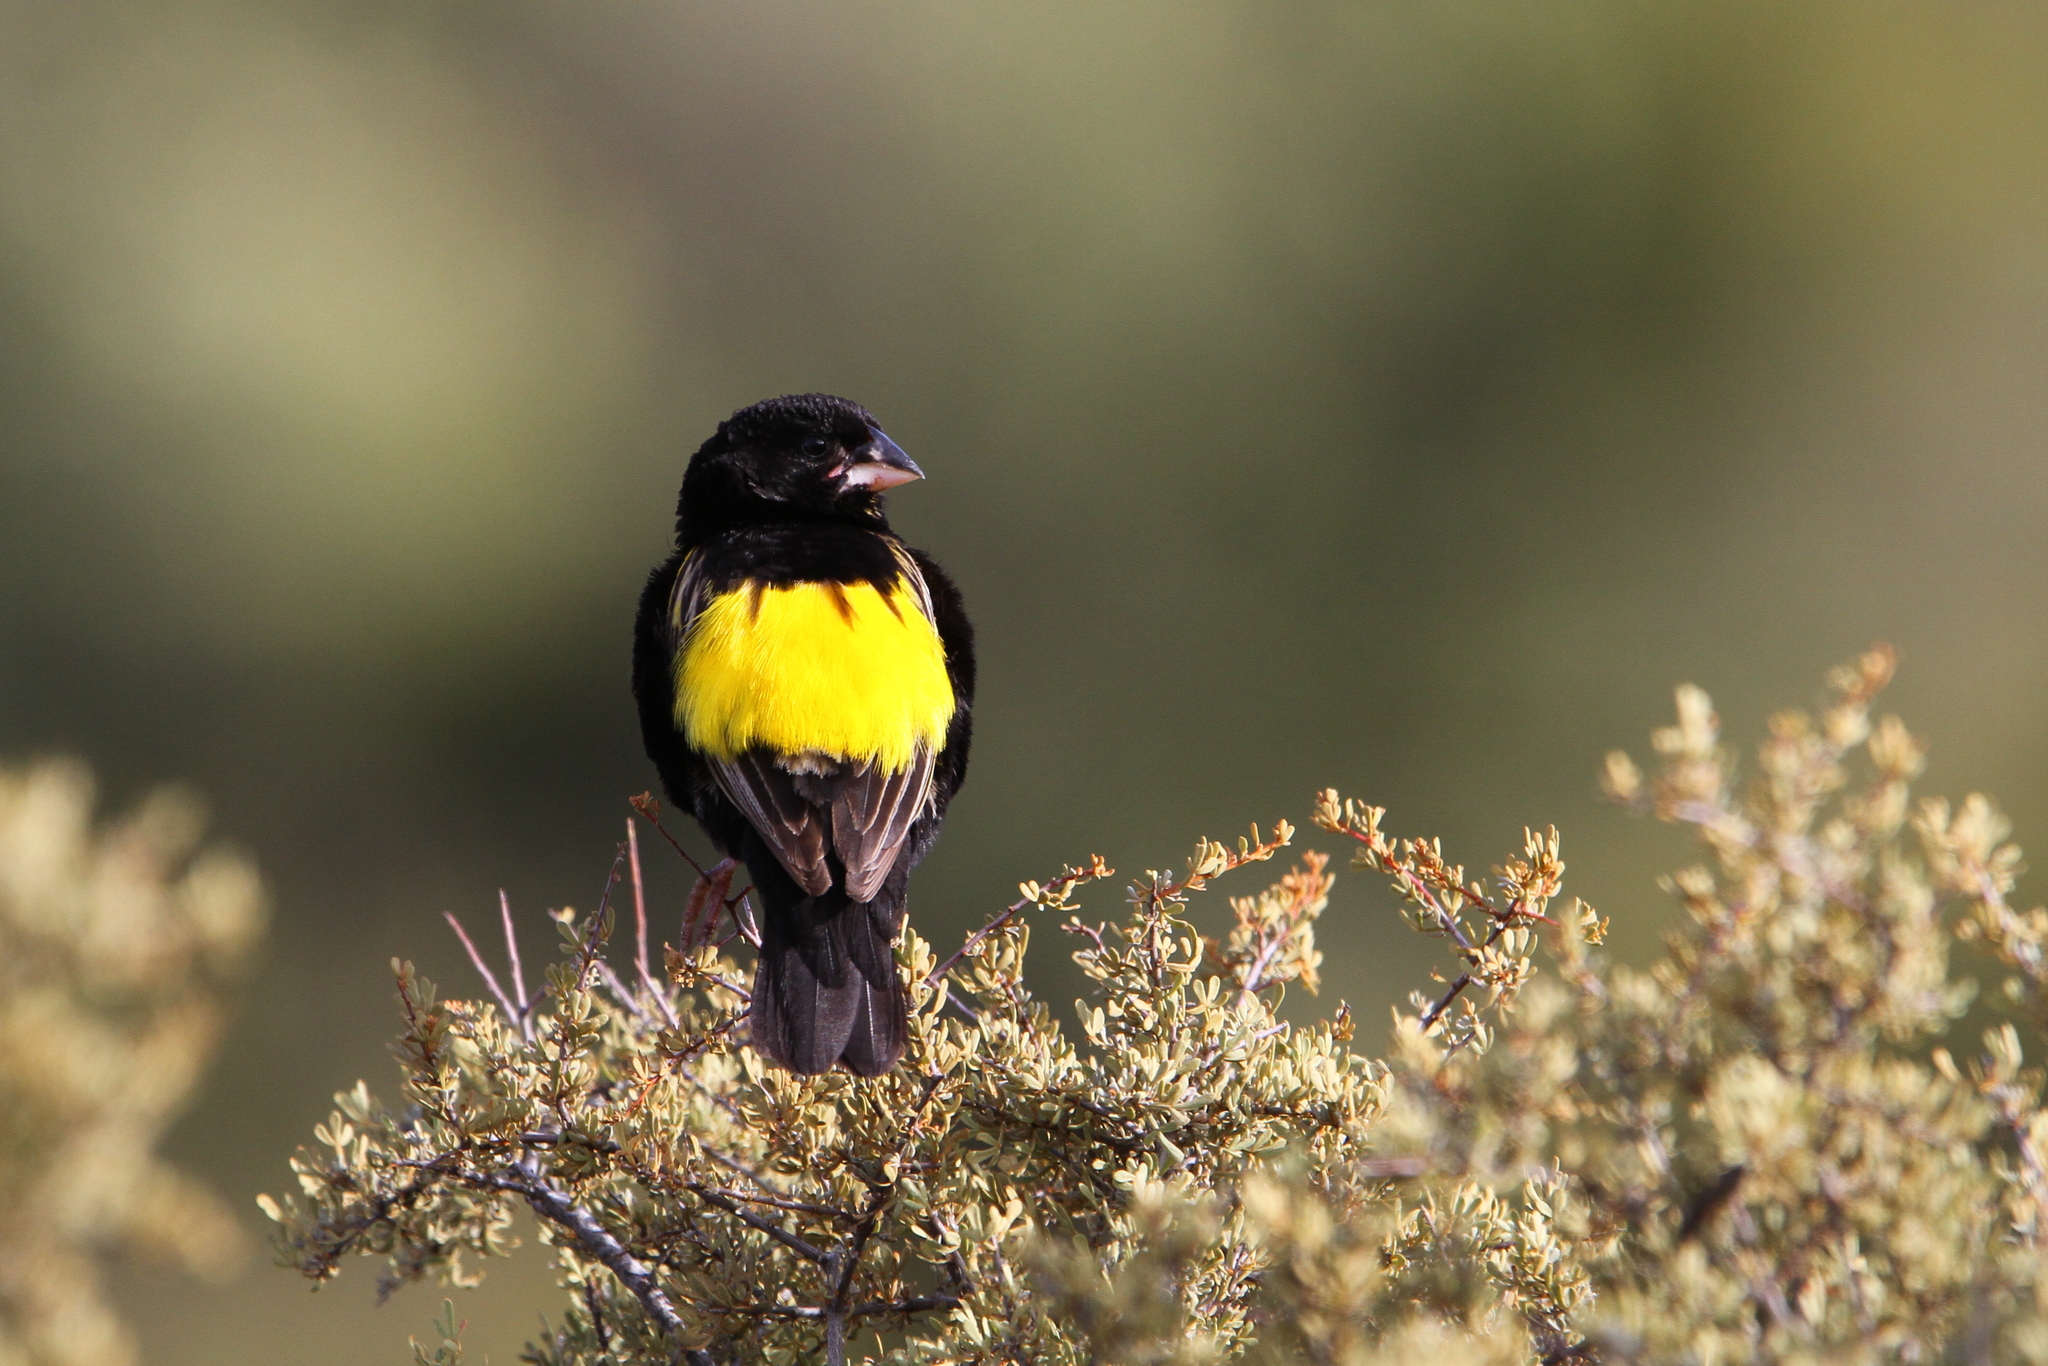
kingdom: Animalia
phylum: Chordata
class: Aves
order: Passeriformes
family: Ploceidae
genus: Euplectes
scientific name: Euplectes capensis
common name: Yellow bishop
